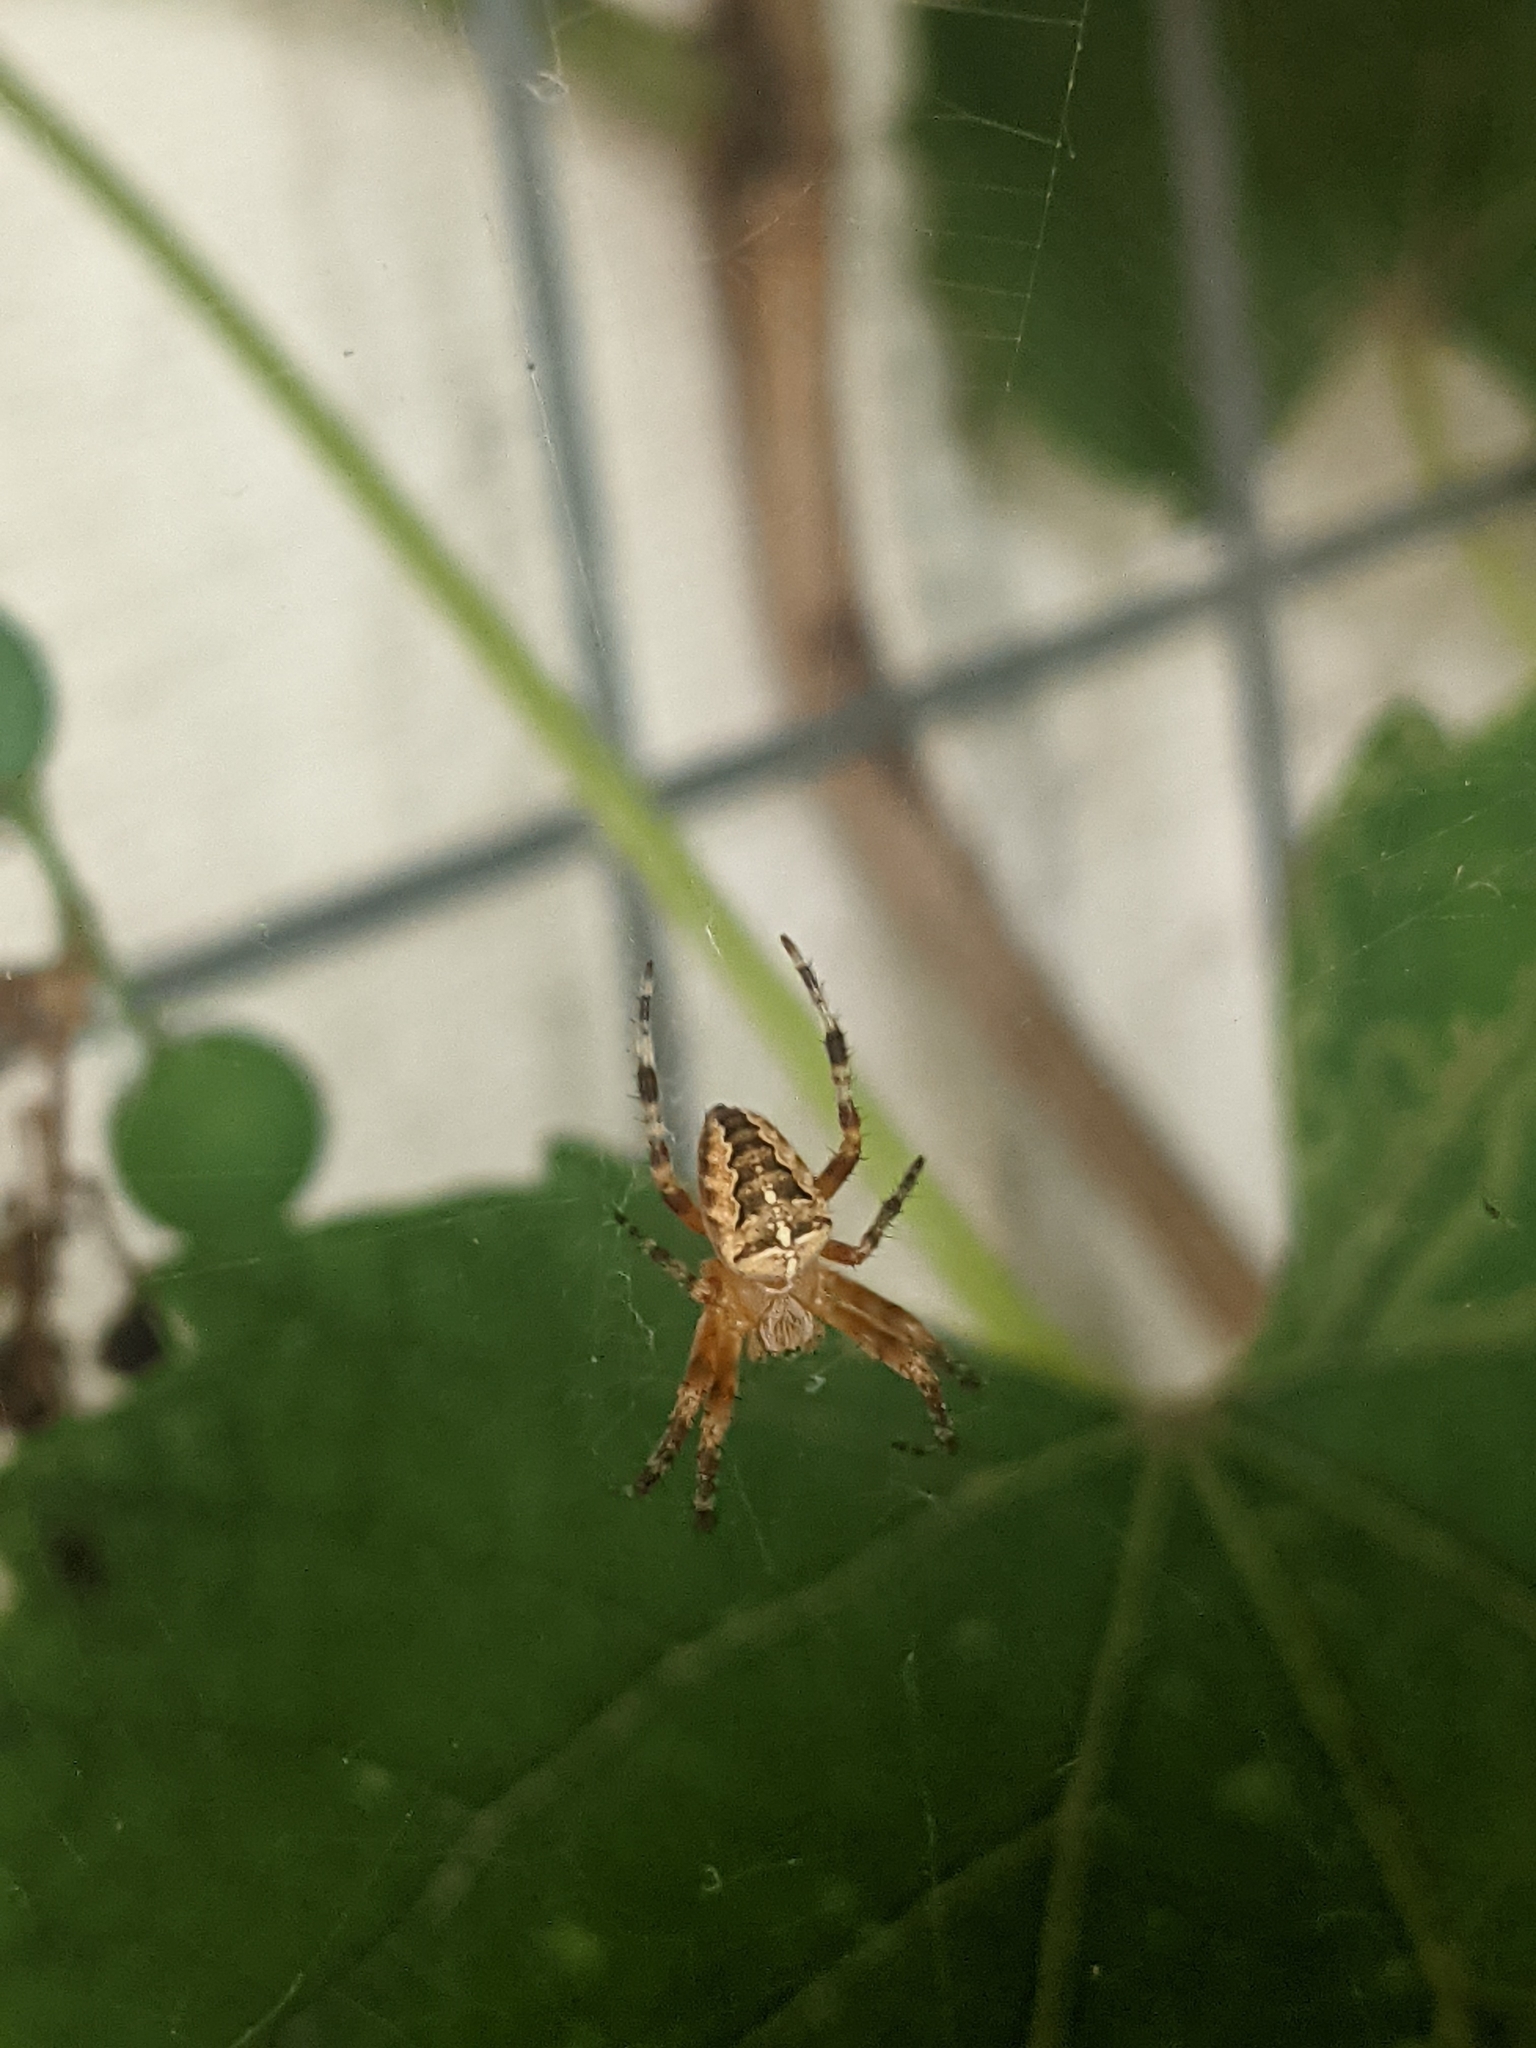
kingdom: Animalia
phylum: Arthropoda
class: Arachnida
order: Araneae
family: Araneidae
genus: Araneus
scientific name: Araneus diadematus
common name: Cross orbweaver
